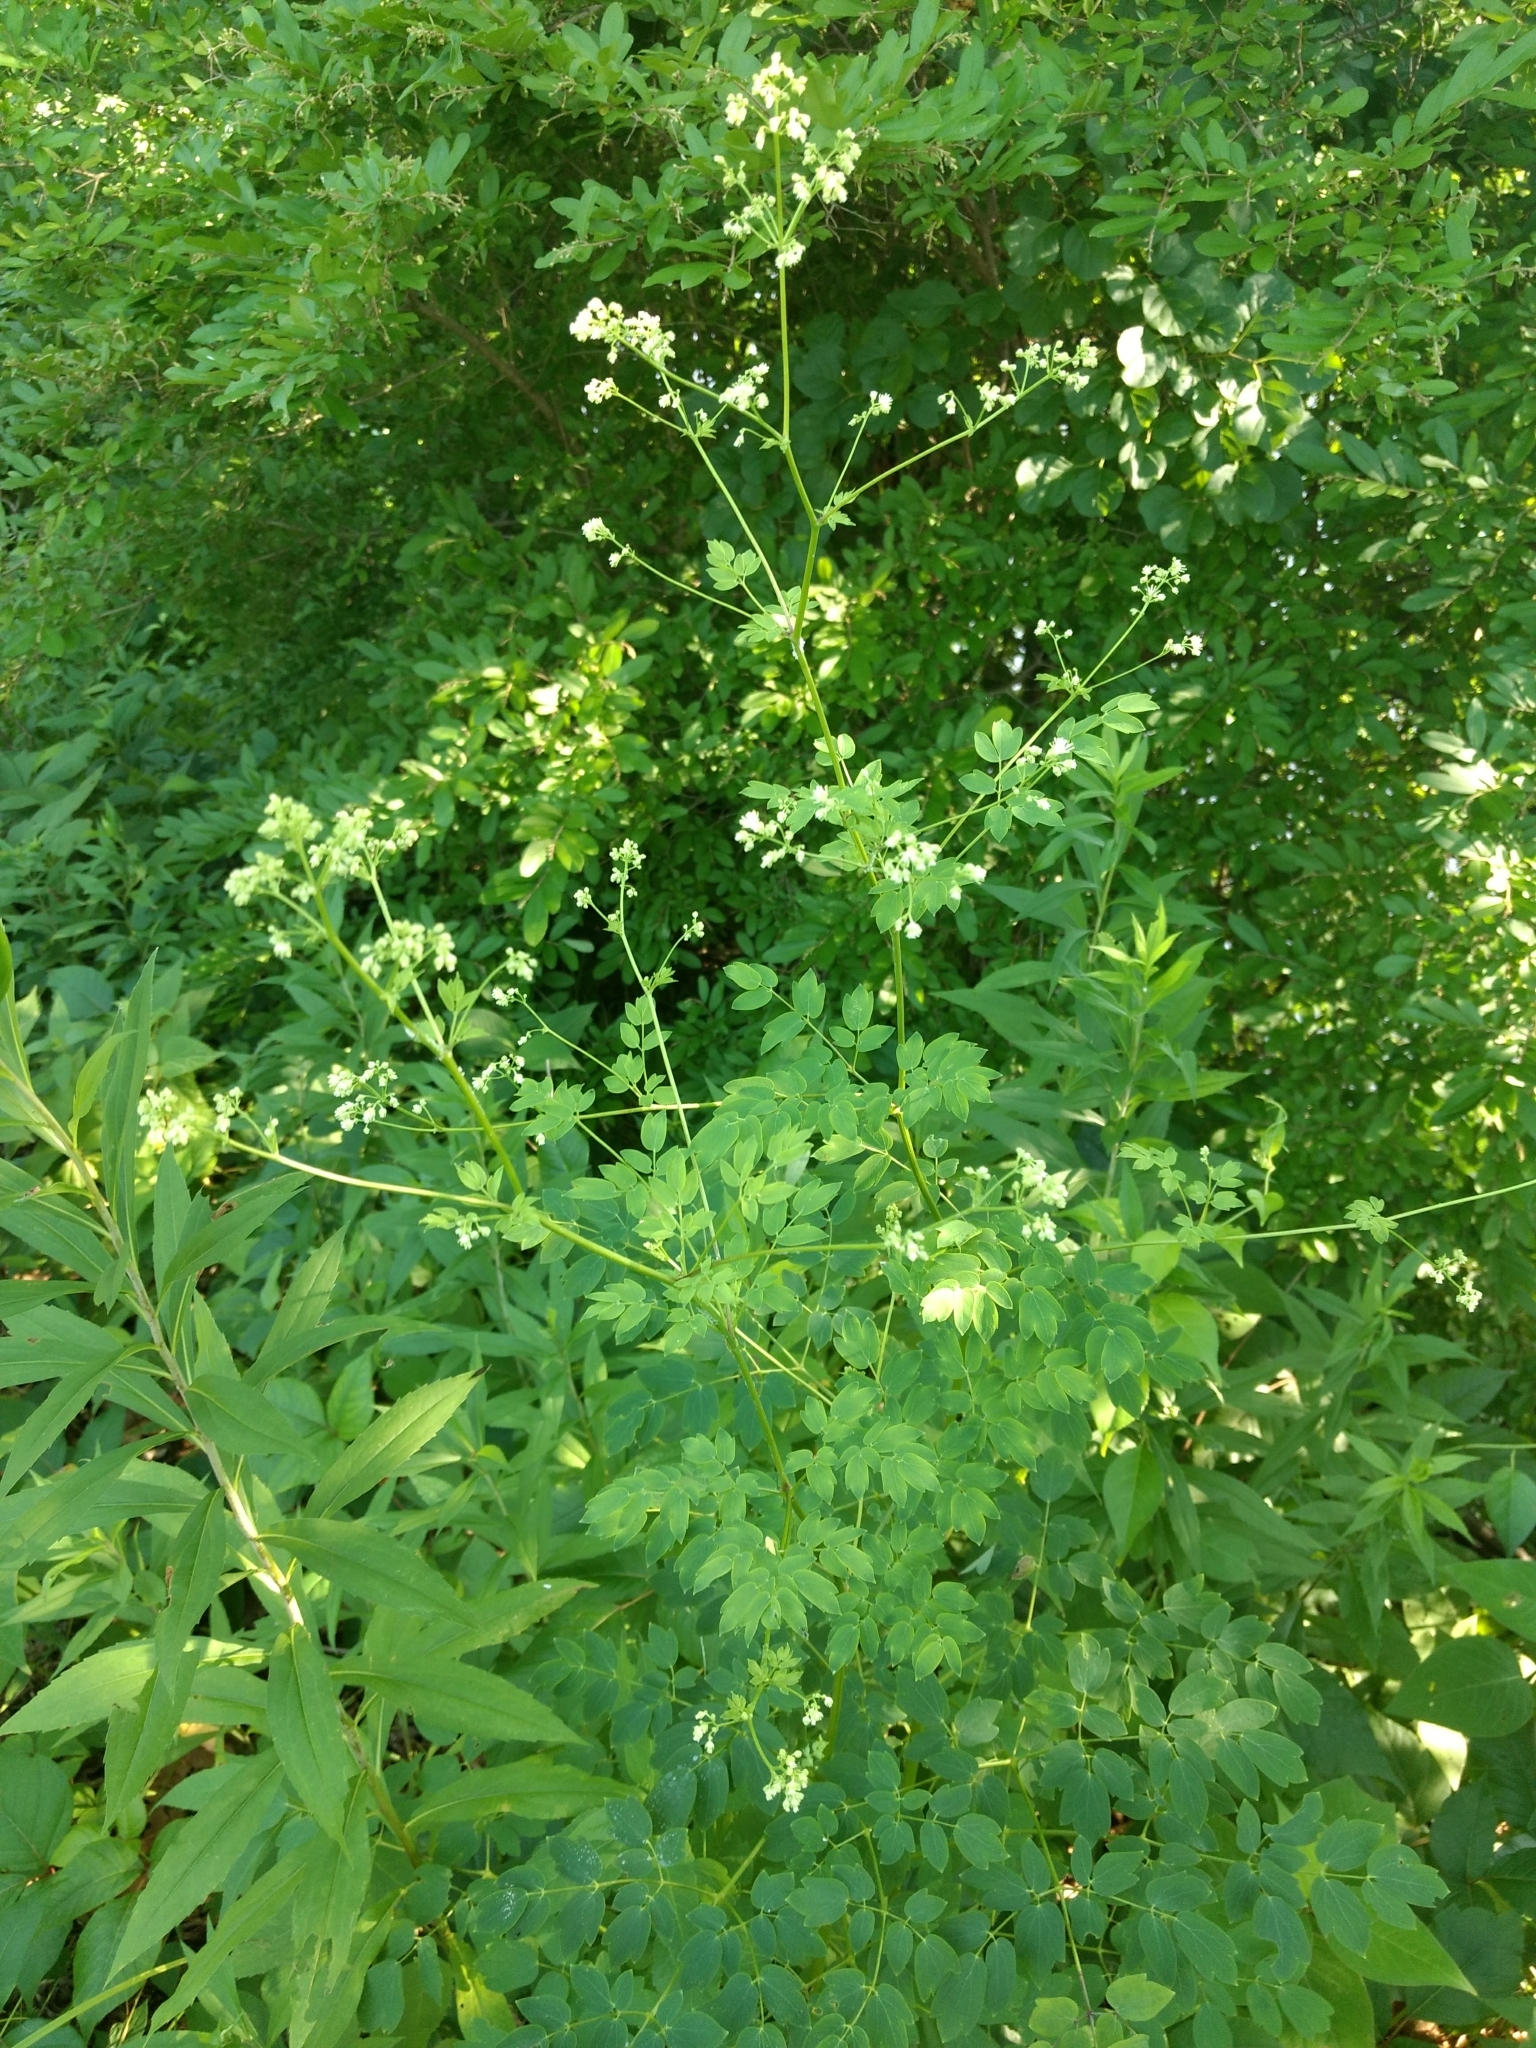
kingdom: Plantae
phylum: Tracheophyta
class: Magnoliopsida
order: Ranunculales
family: Ranunculaceae
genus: Thalictrum
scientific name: Thalictrum pubescens
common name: King-of-the-meadow
